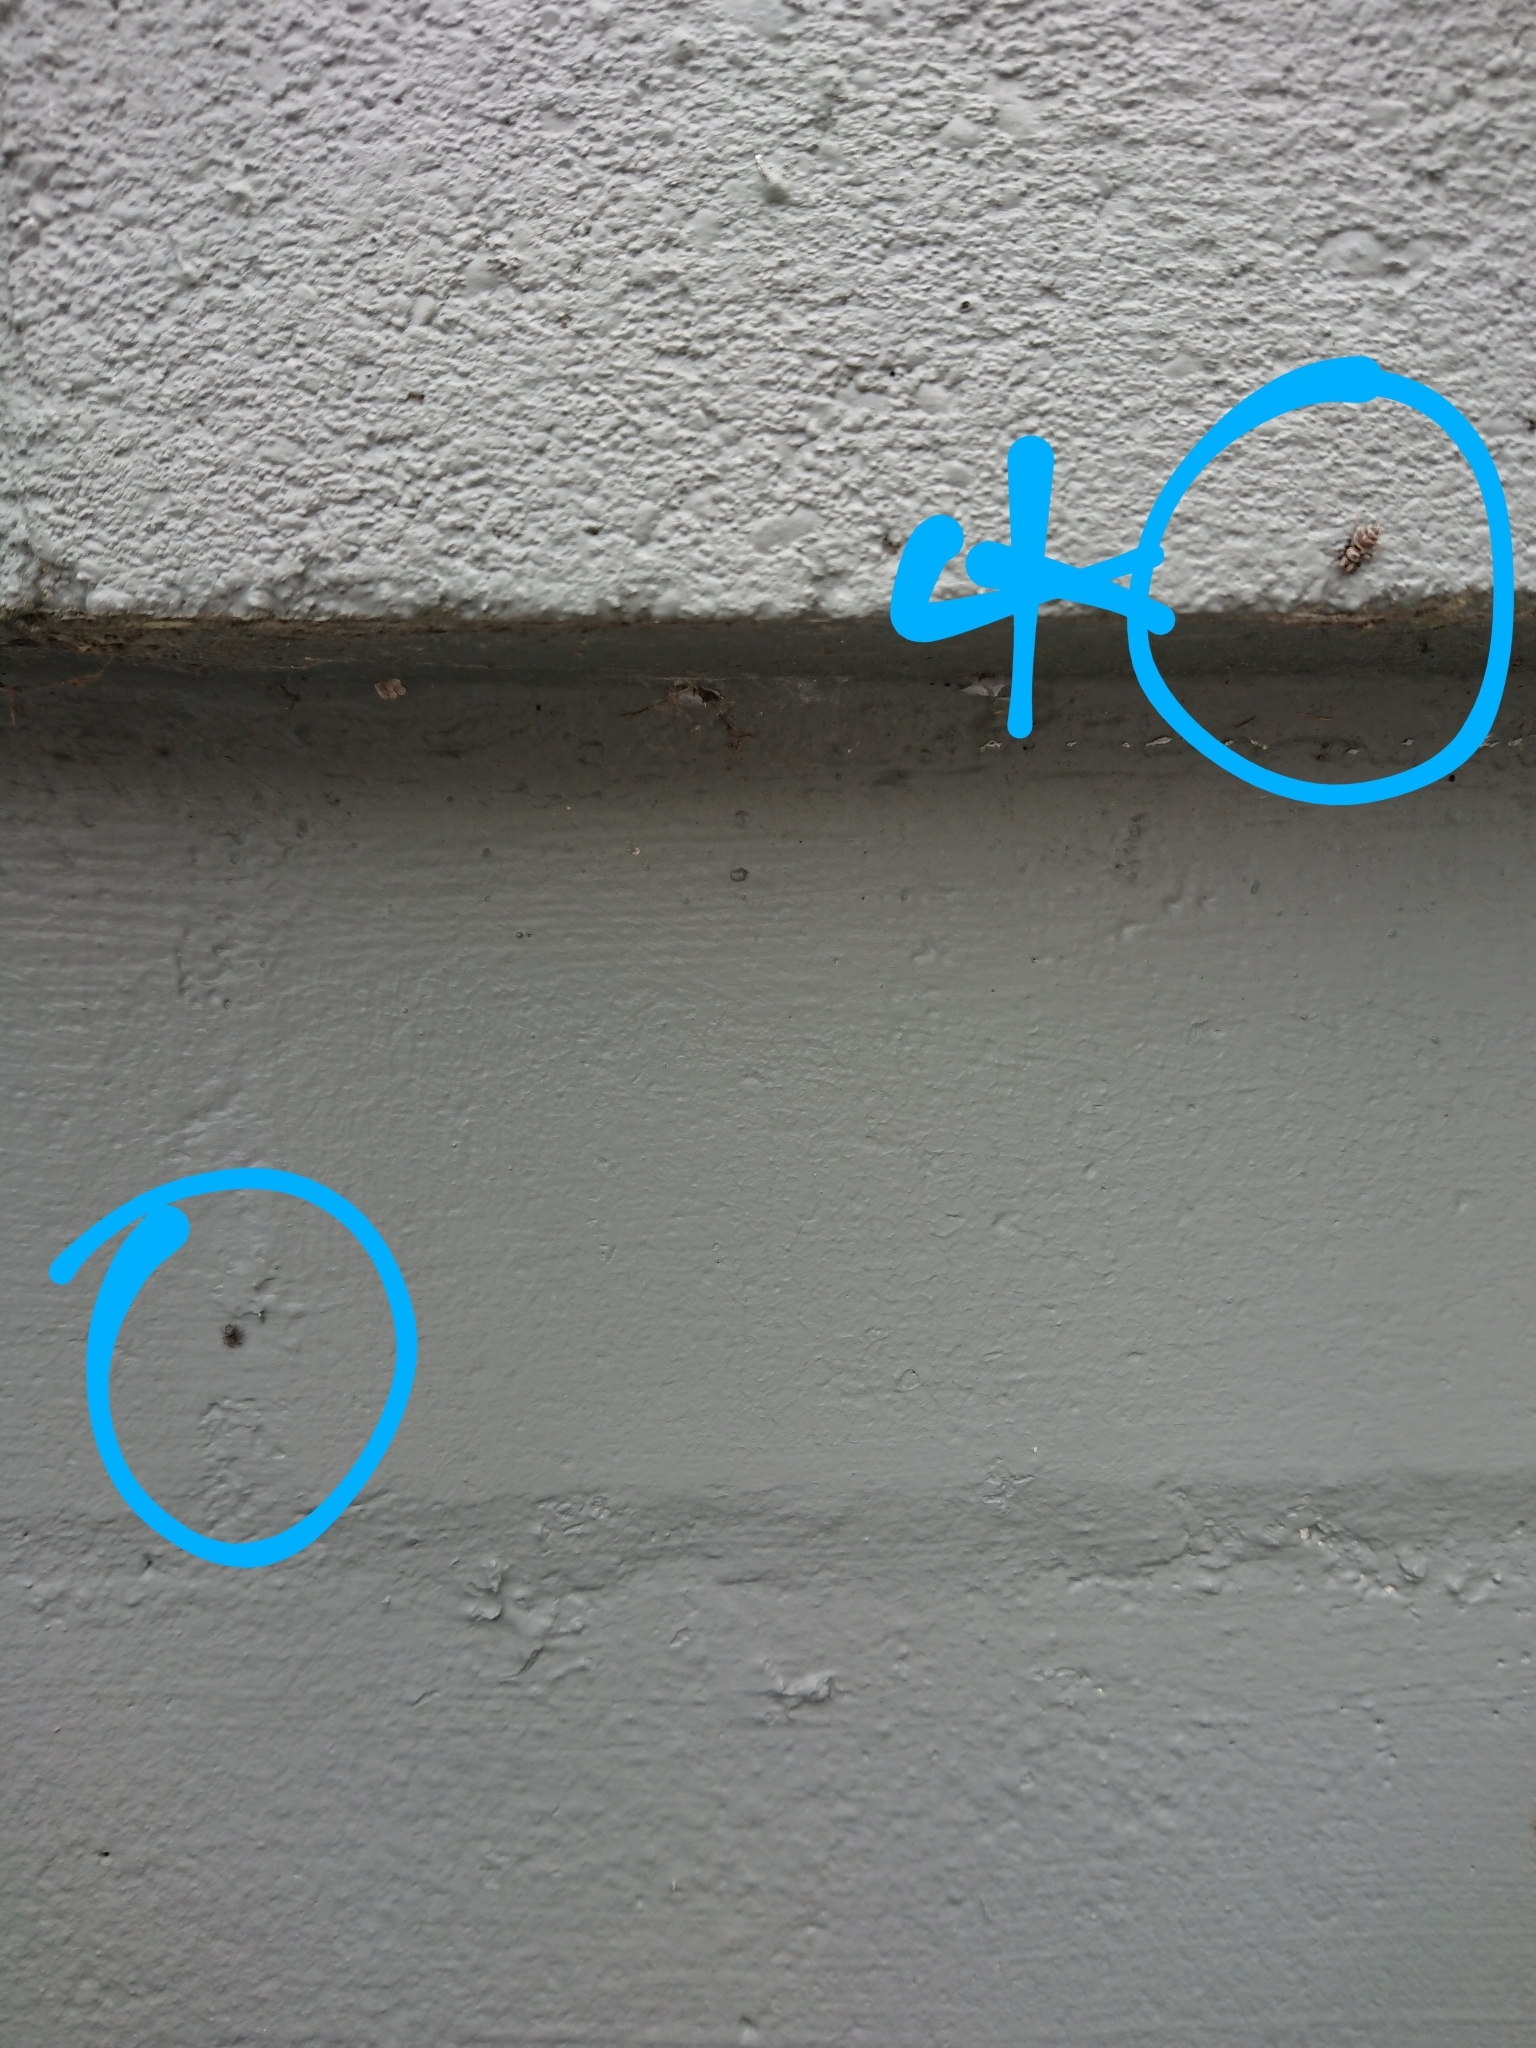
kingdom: Animalia
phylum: Arthropoda
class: Arachnida
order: Araneae
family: Salticidae
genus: Maratus
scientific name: Maratus griseus
